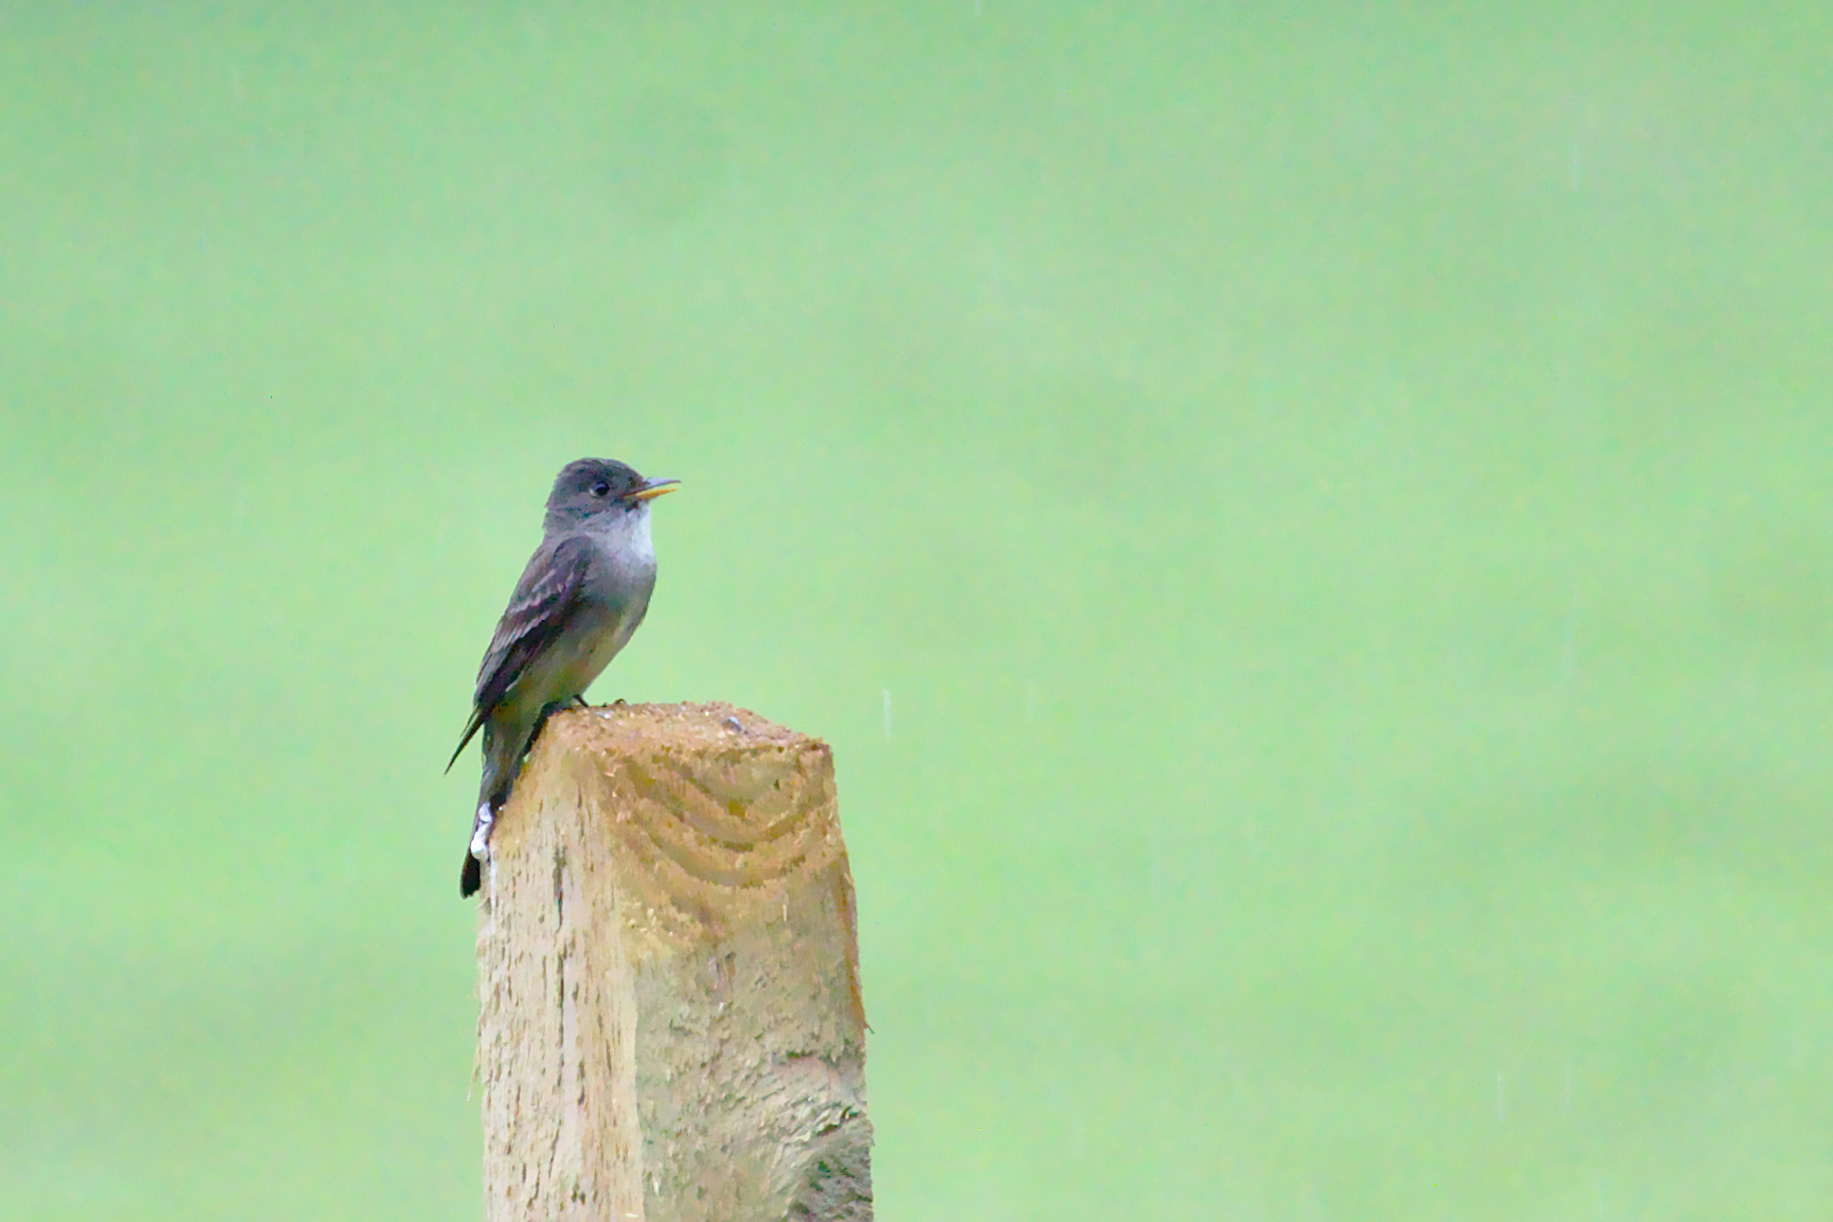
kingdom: Animalia
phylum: Chordata
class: Aves
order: Passeriformes
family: Tyrannidae
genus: Contopus
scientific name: Contopus virens
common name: Eastern wood-pewee
